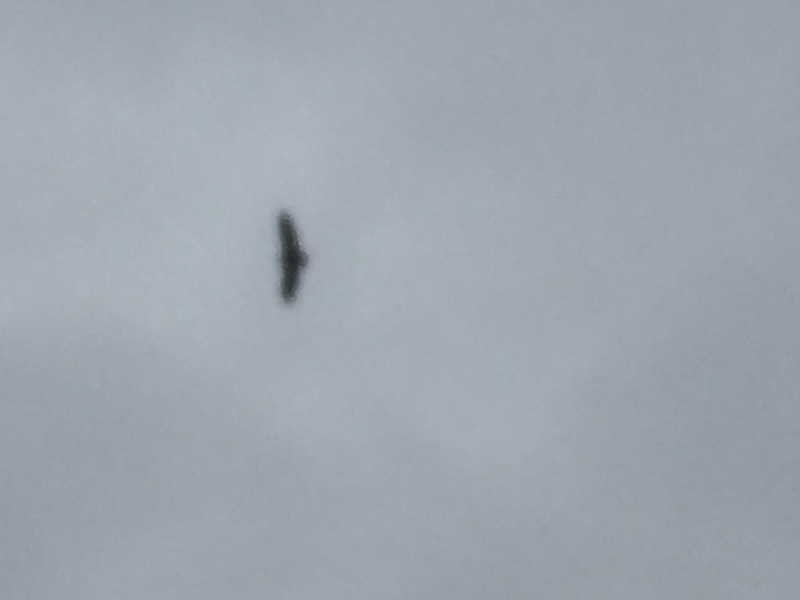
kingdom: Animalia
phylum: Chordata
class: Aves
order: Accipitriformes
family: Accipitridae
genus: Gyps
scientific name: Gyps fulvus
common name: Griffon vulture
